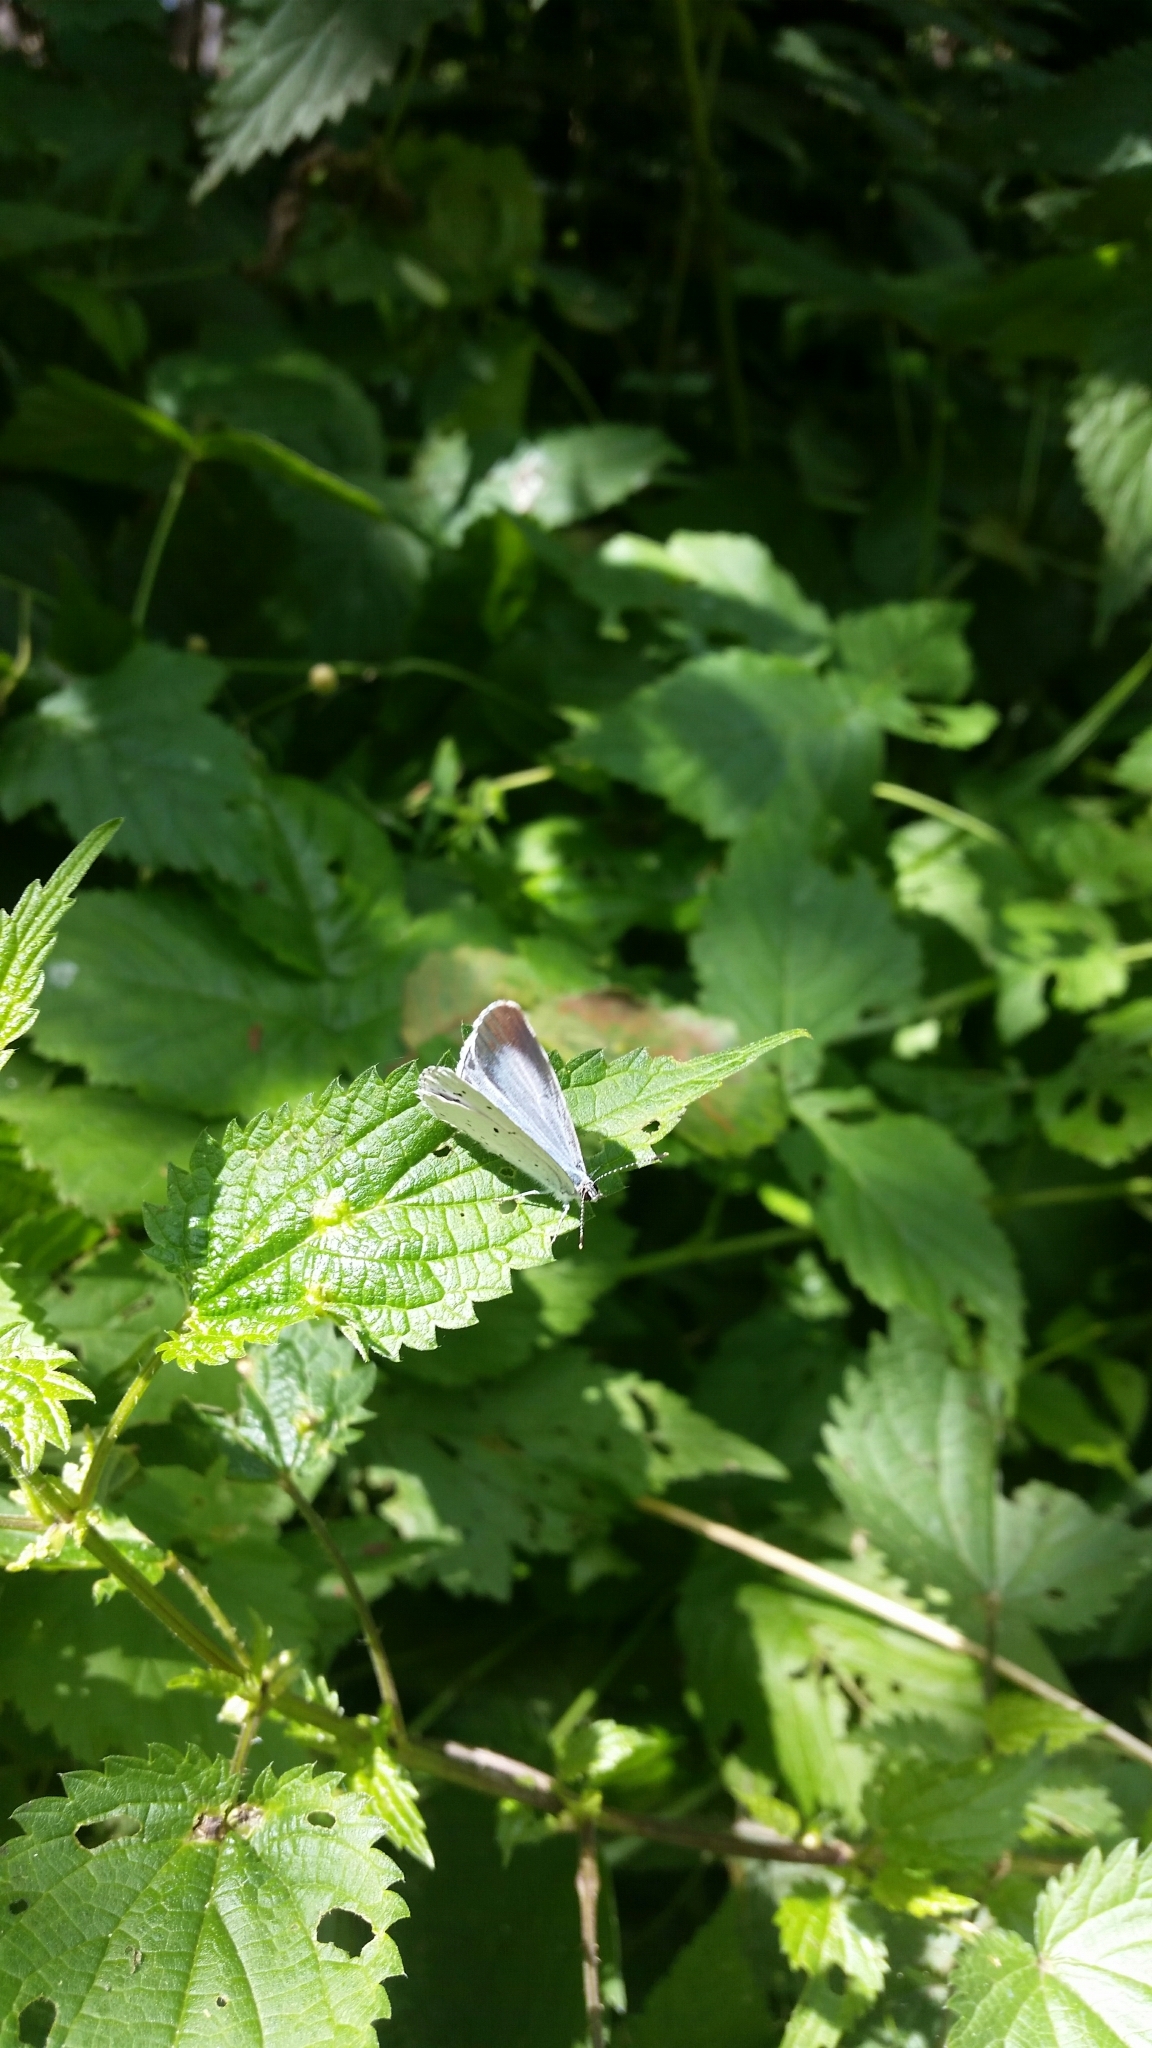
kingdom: Animalia
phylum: Arthropoda
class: Insecta
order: Lepidoptera
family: Lycaenidae
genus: Celastrina
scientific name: Celastrina argiolus
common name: Holly blue
